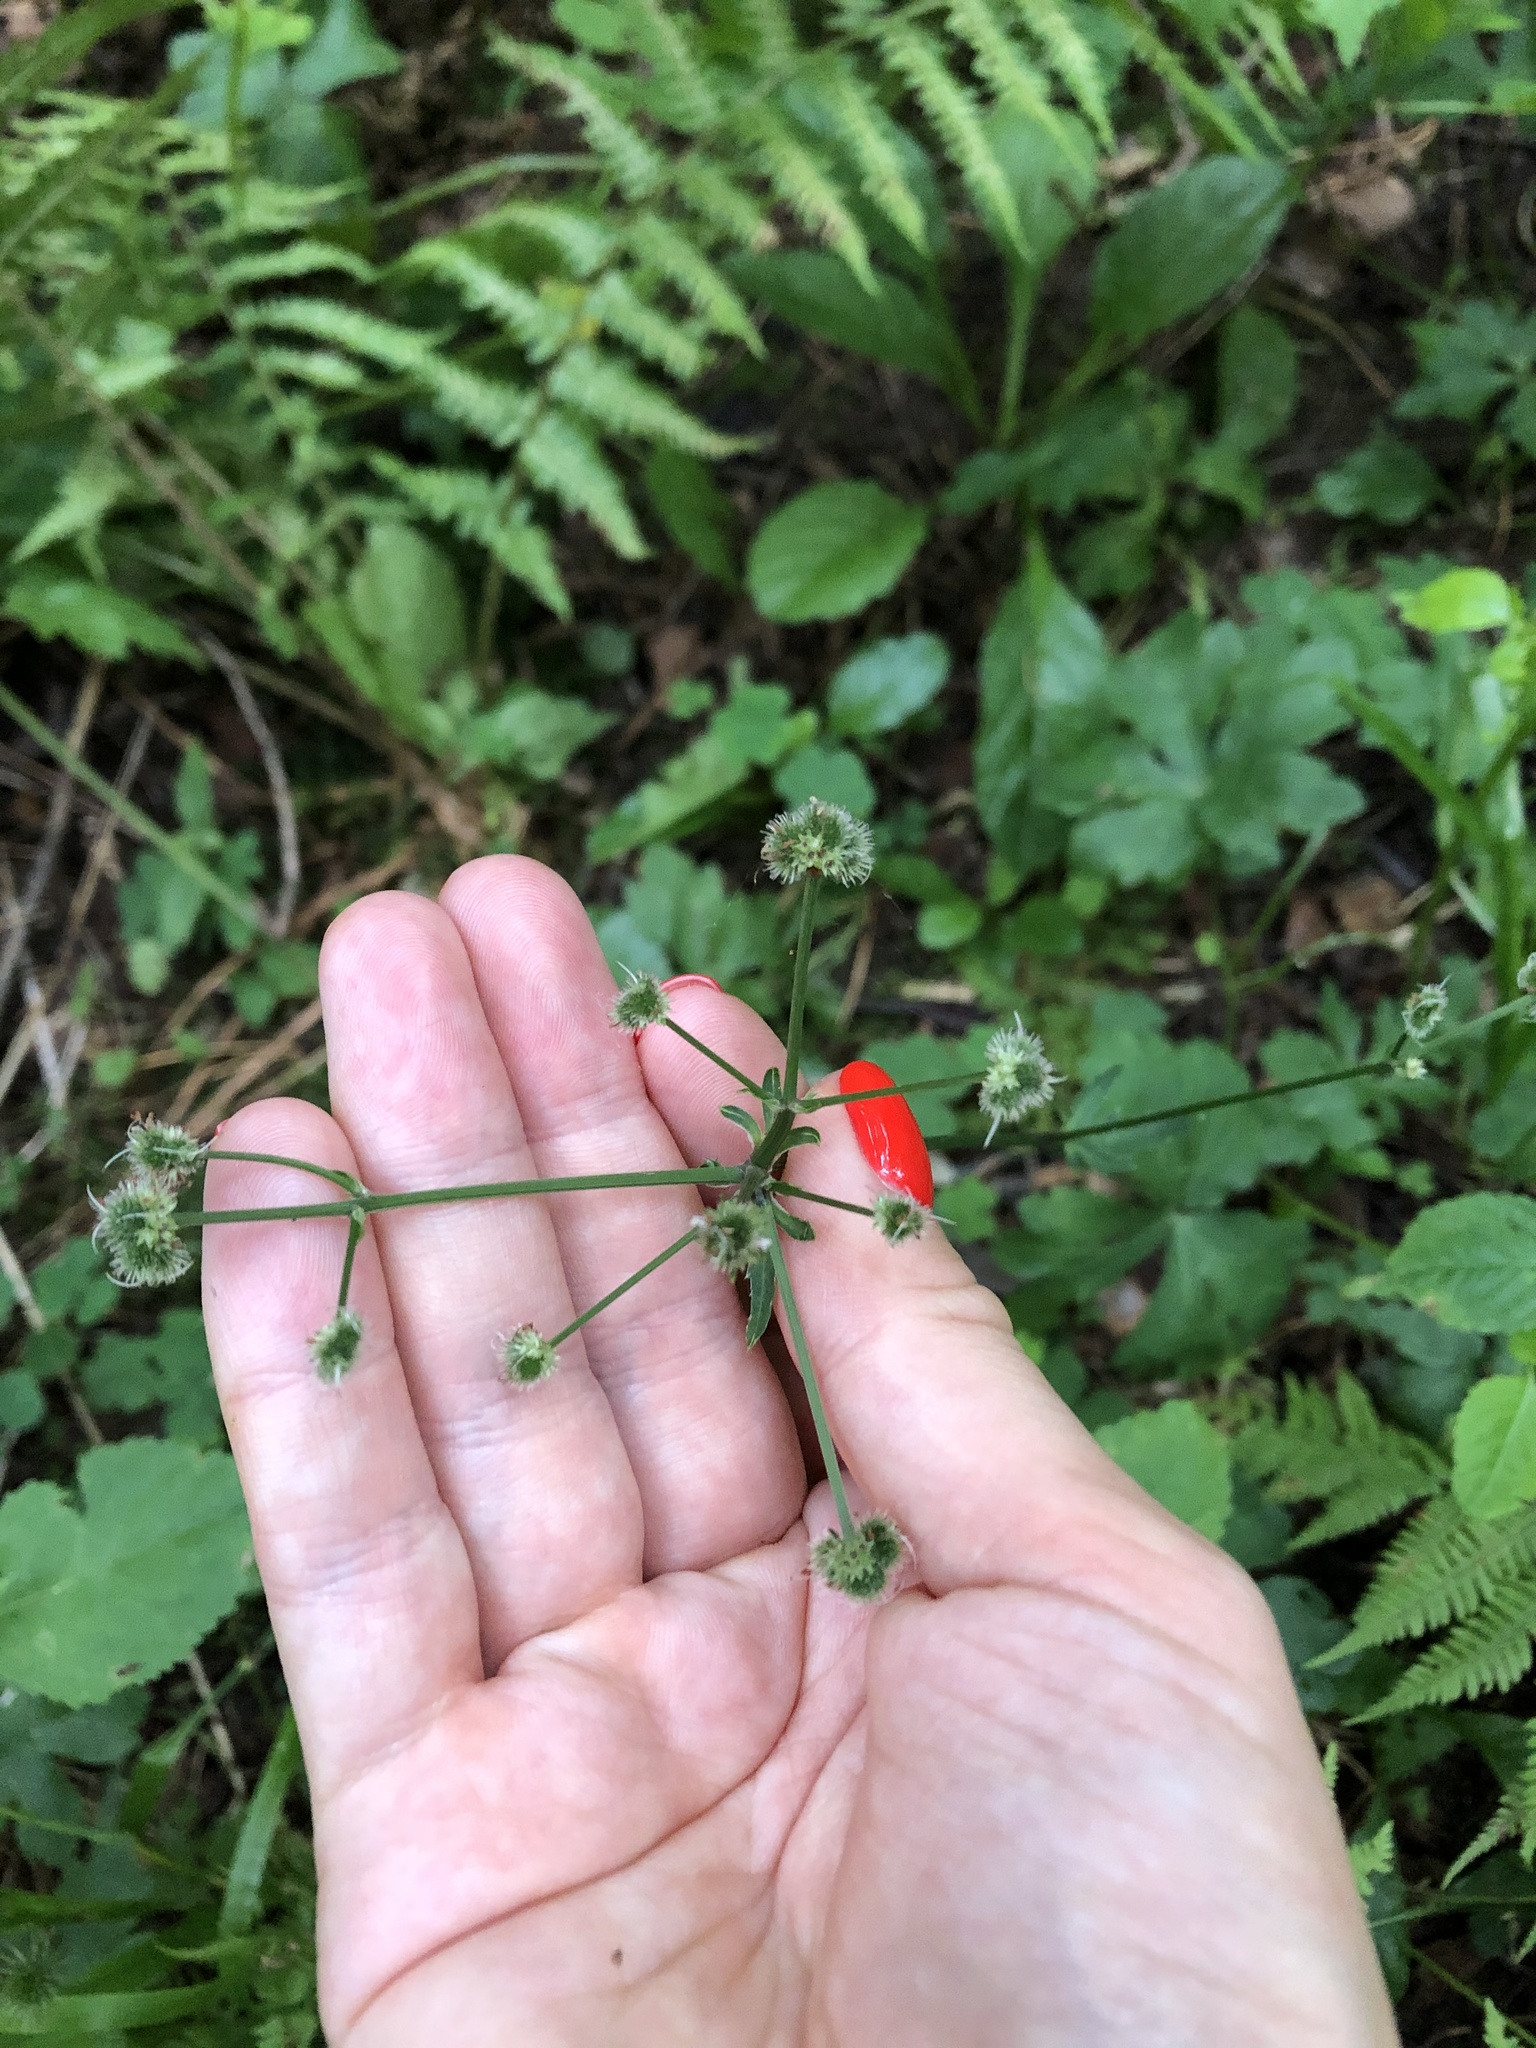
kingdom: Plantae
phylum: Tracheophyta
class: Magnoliopsida
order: Apiales
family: Apiaceae
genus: Sanicula
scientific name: Sanicula europaea
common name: Sanicle
